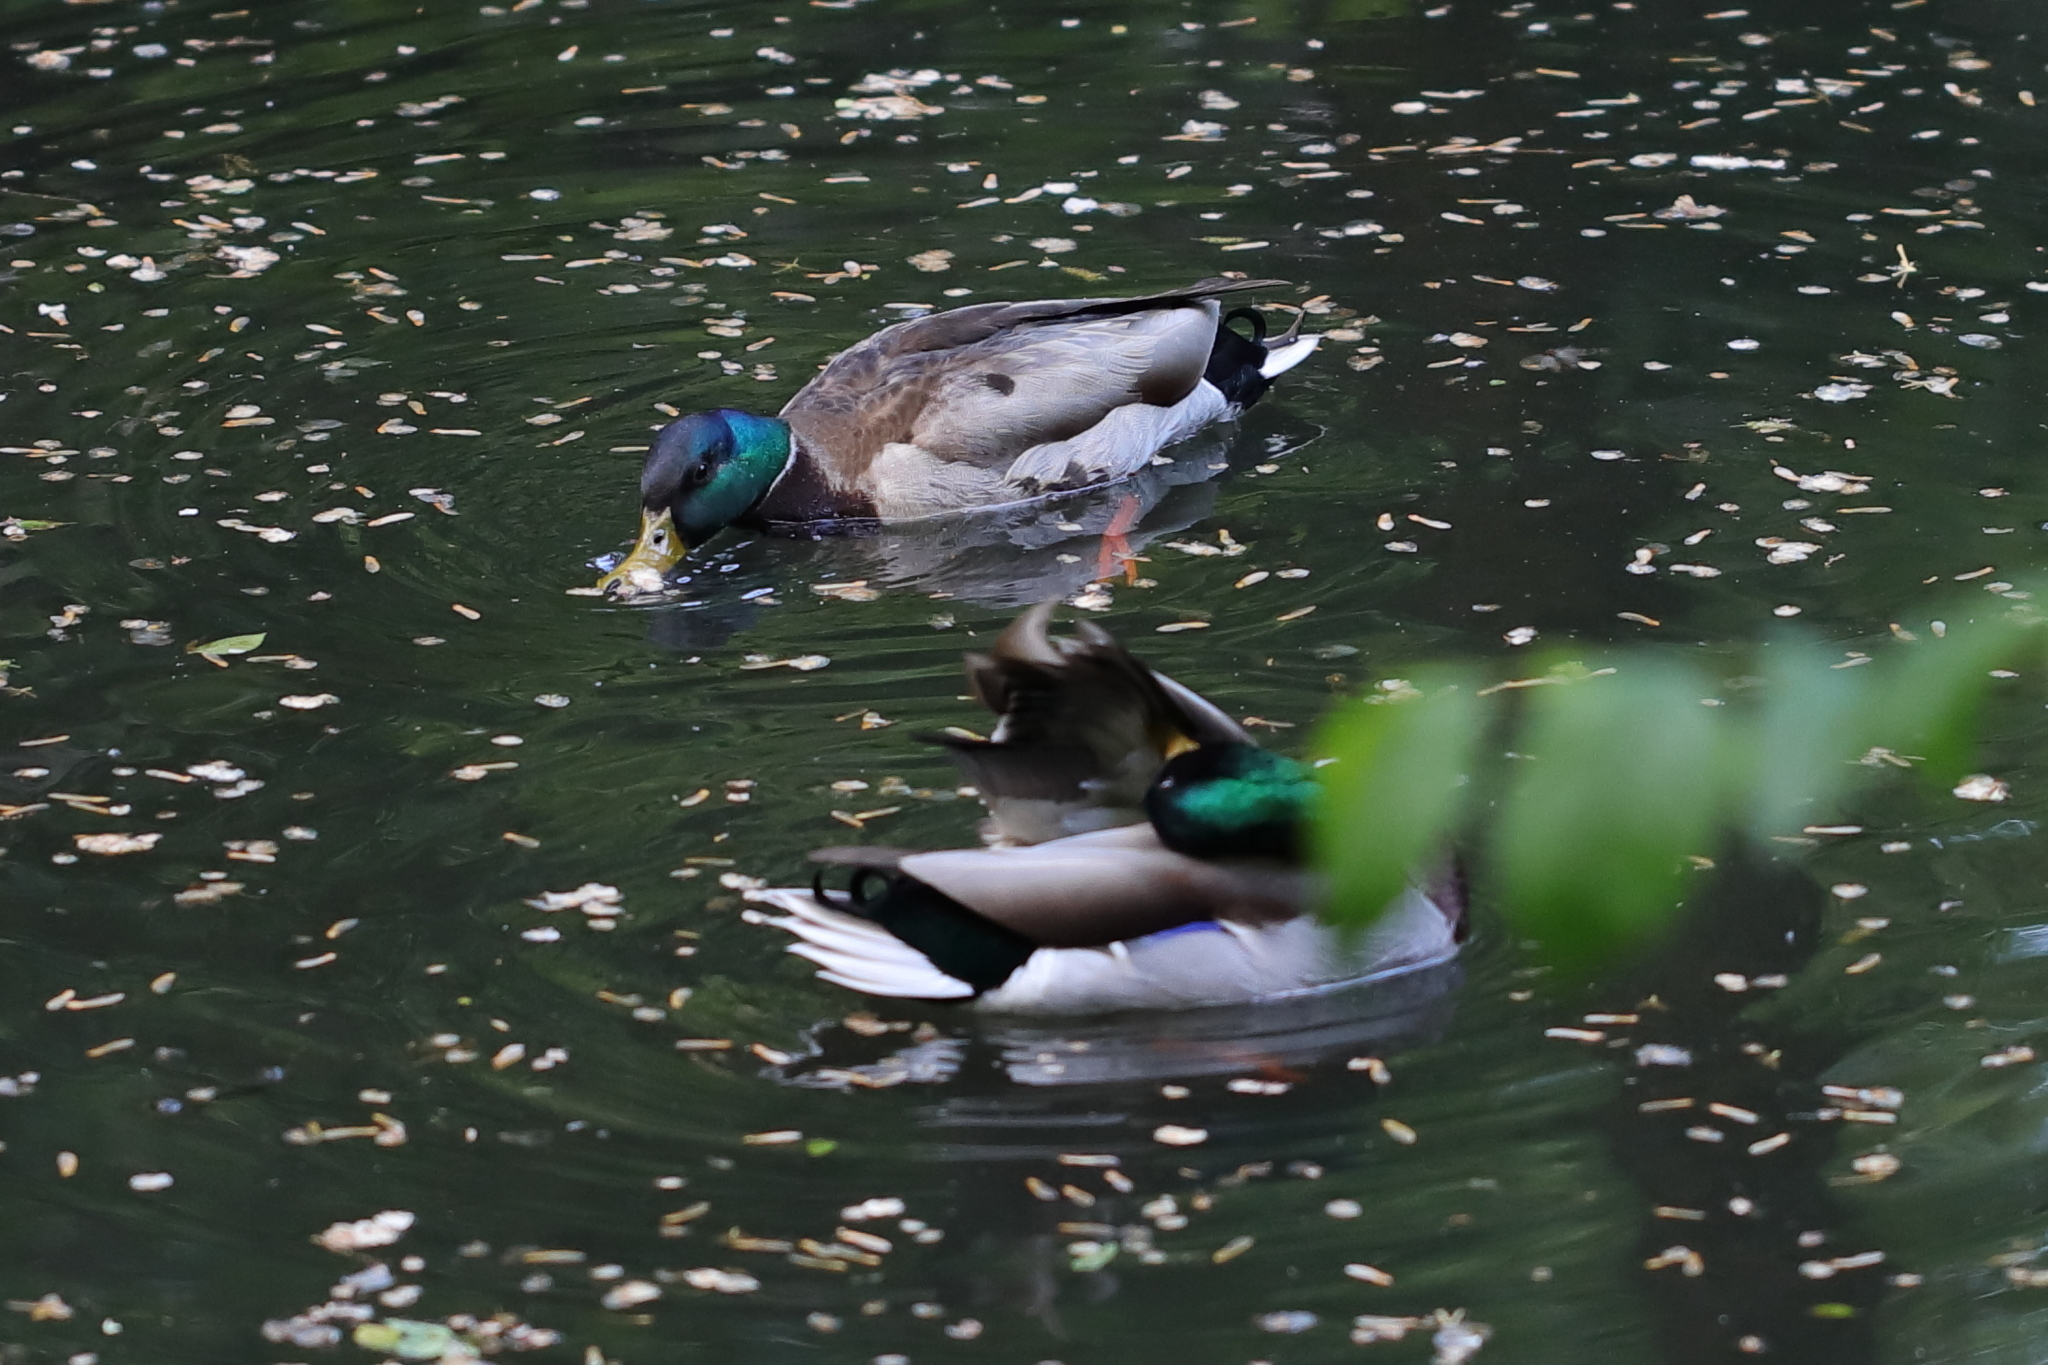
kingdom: Animalia
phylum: Chordata
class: Aves
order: Anseriformes
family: Anatidae
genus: Anas
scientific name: Anas platyrhynchos
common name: Mallard
